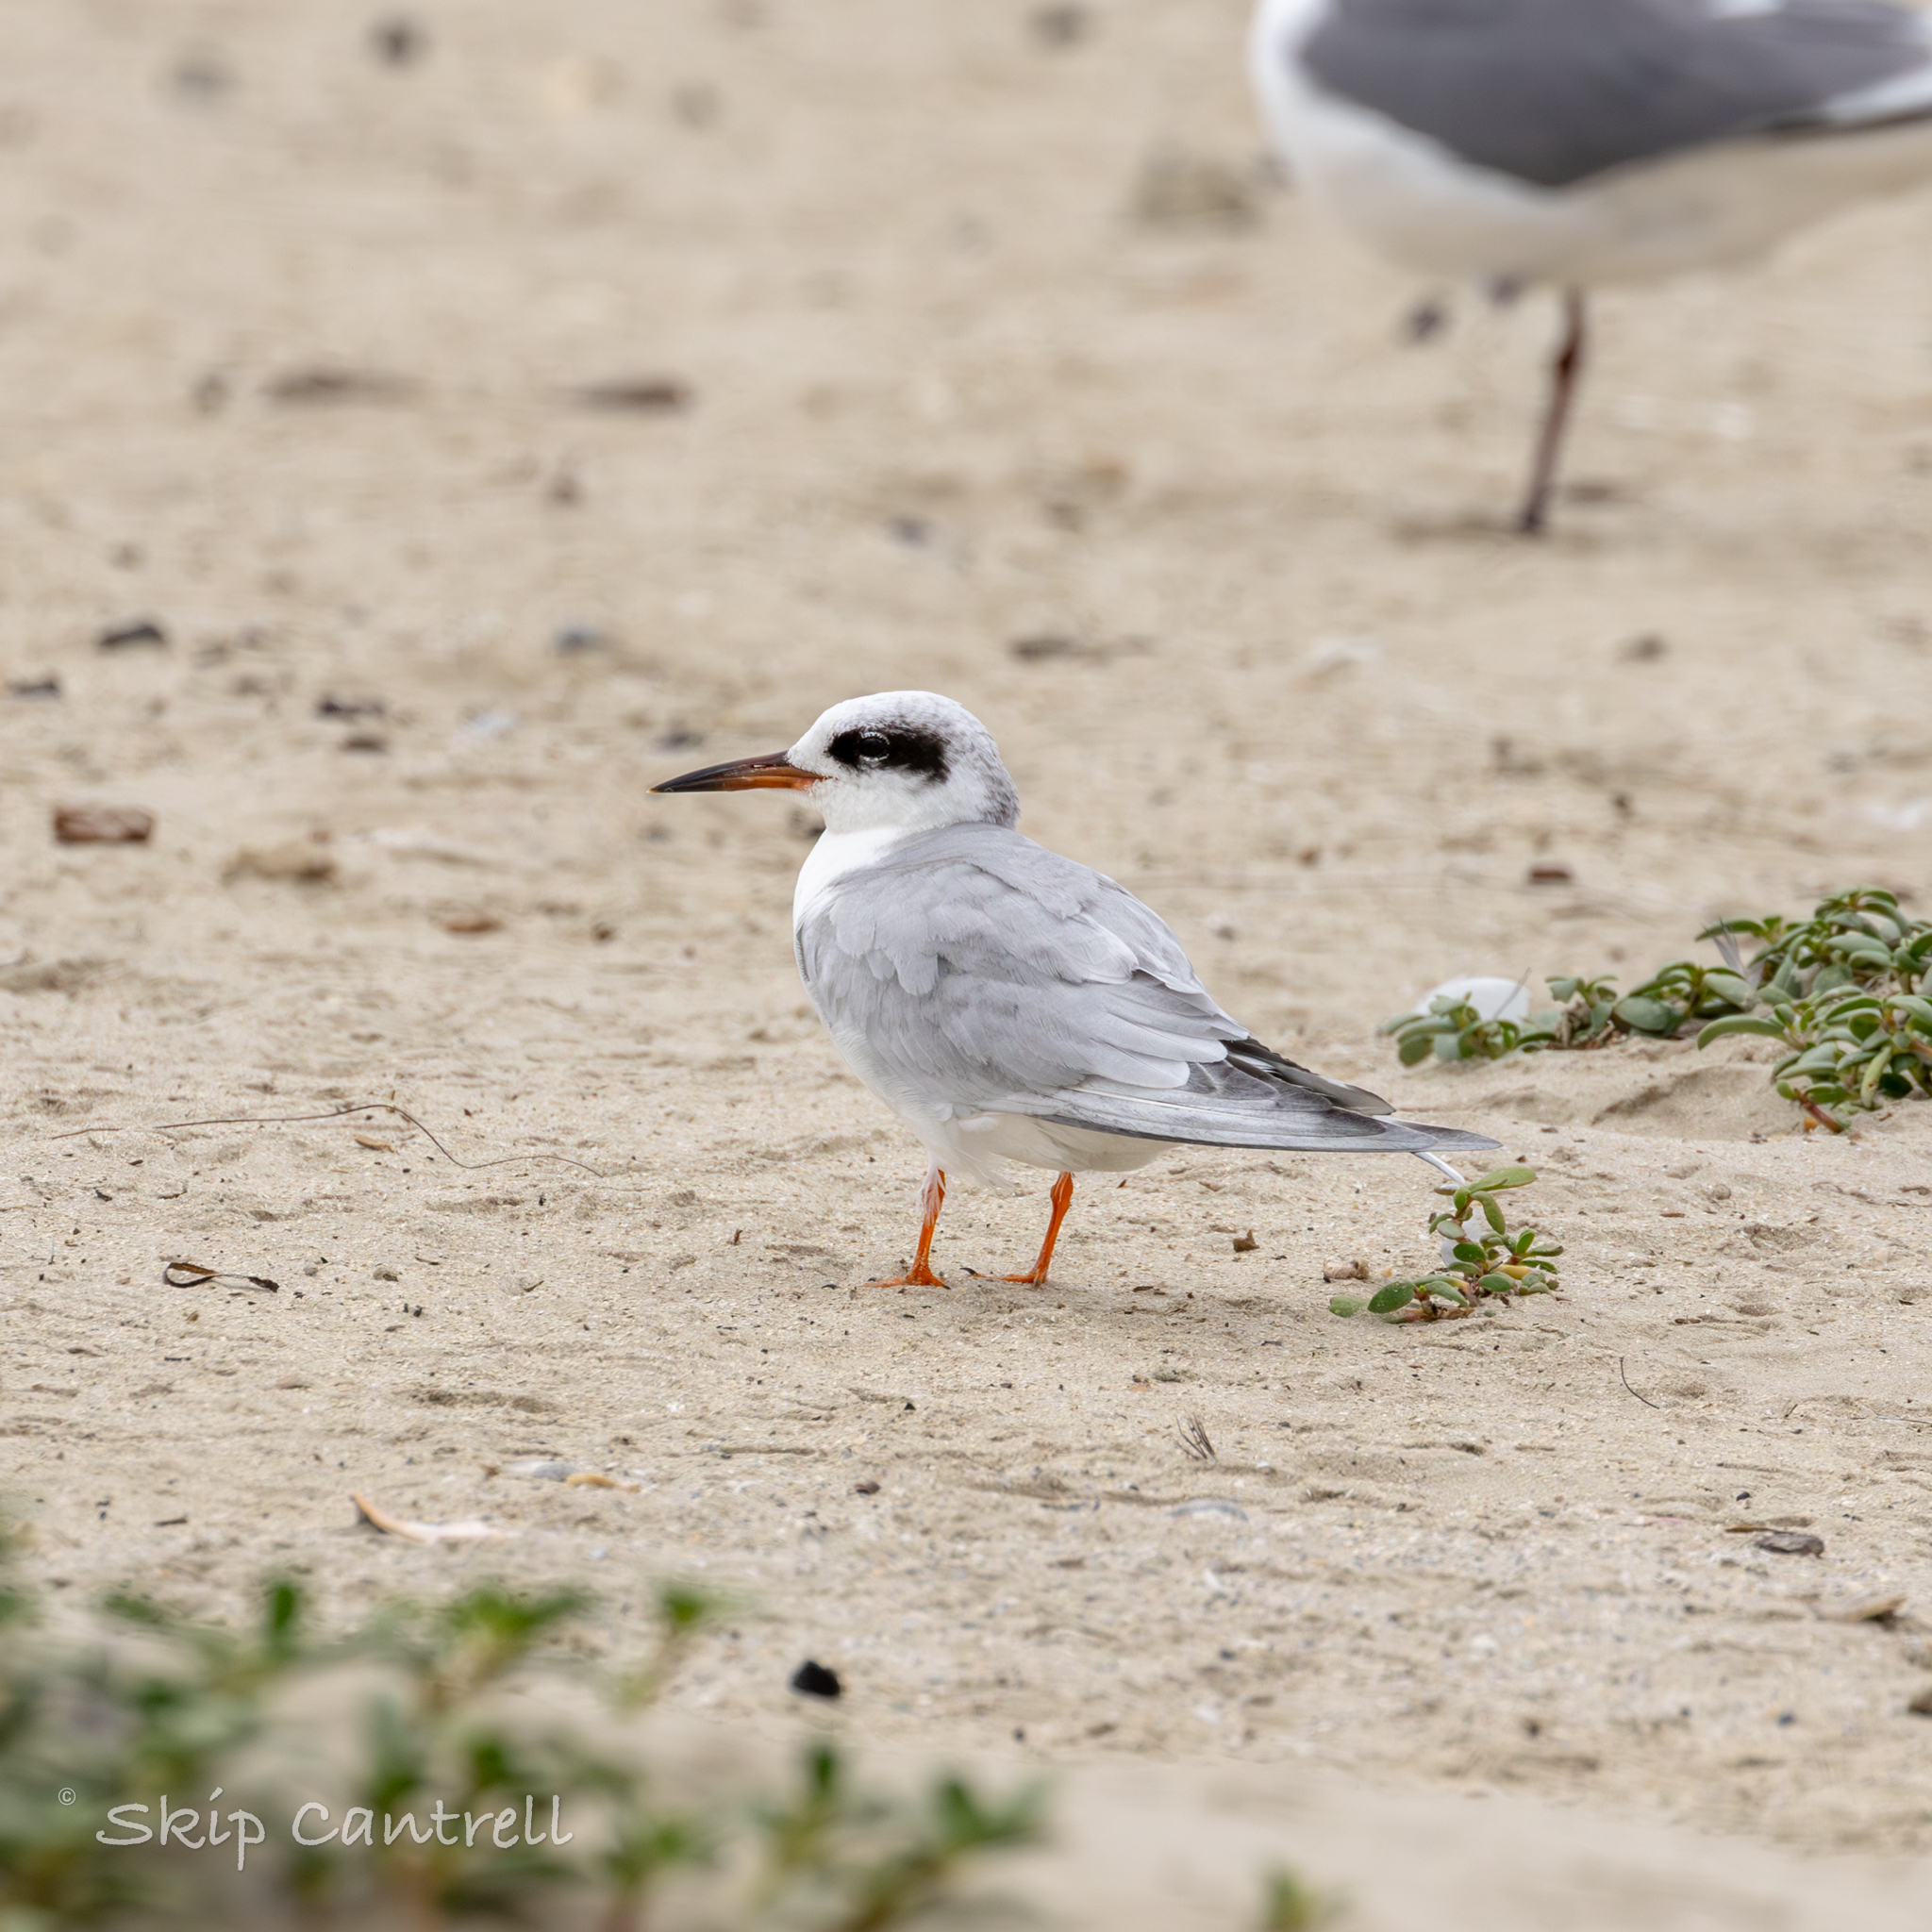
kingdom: Animalia
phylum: Chordata
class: Aves
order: Charadriiformes
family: Laridae
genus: Sterna
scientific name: Sterna forsteri
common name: Forster's tern
